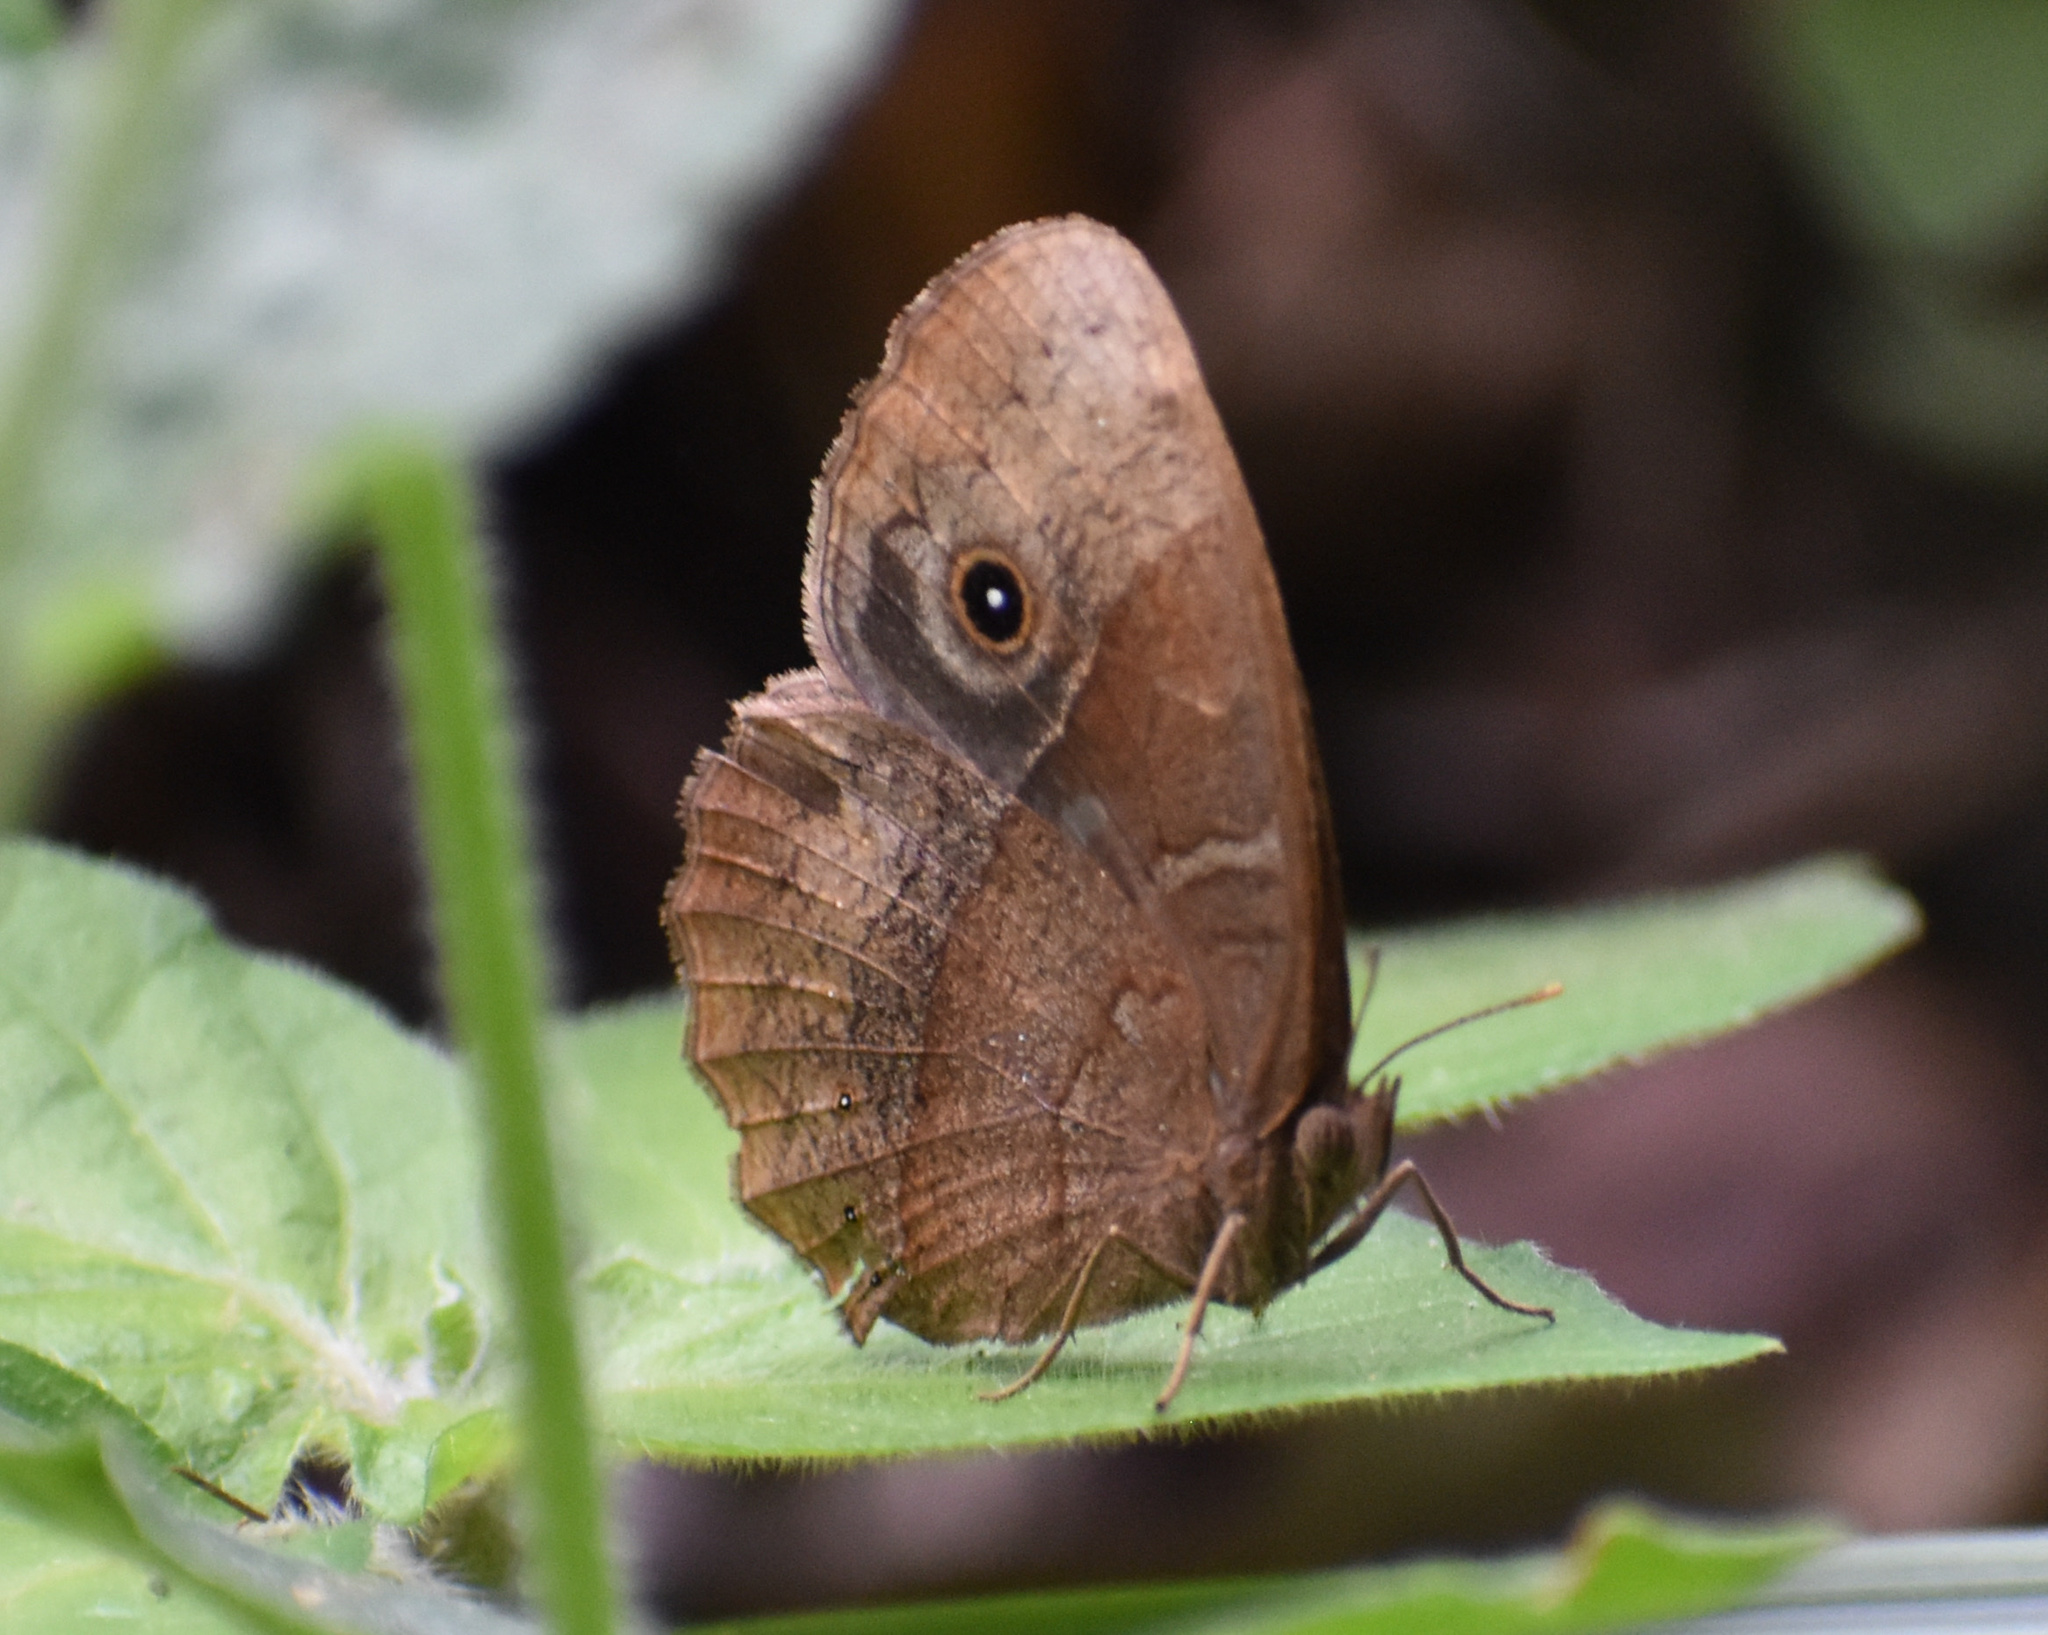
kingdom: Animalia
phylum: Arthropoda
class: Insecta
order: Lepidoptera
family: Nymphalidae
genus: Mycalesis
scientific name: Mycalesis rhacotis
